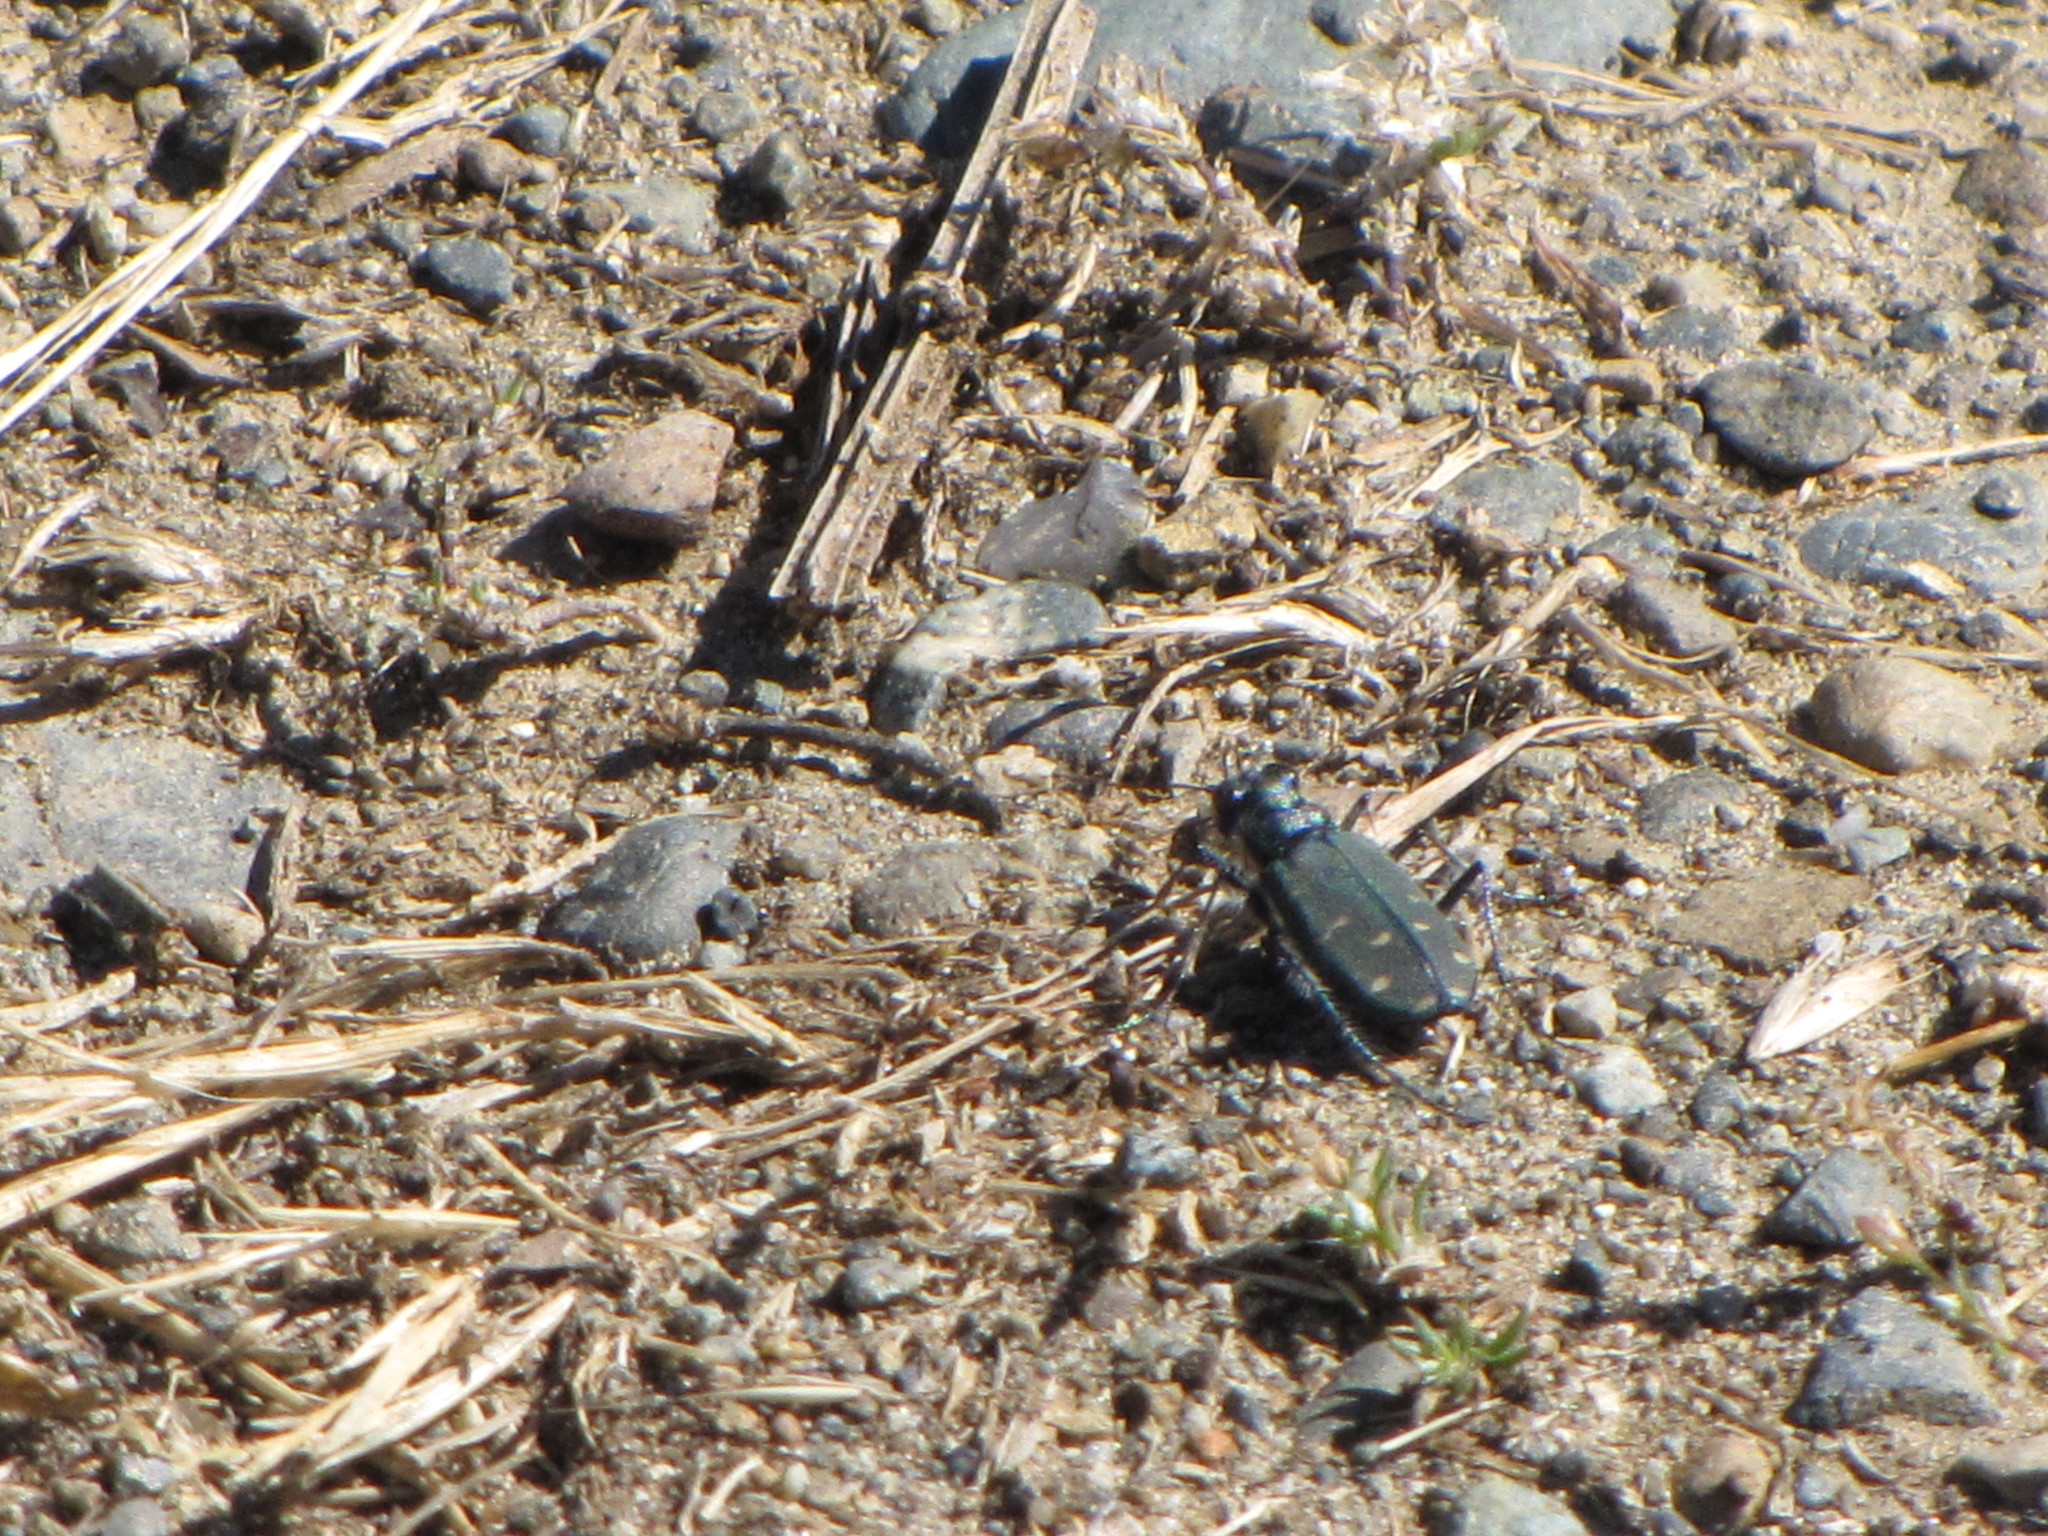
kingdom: Animalia
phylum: Arthropoda
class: Insecta
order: Coleoptera
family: Carabidae
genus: Cicindela
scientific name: Cicindela oregona
